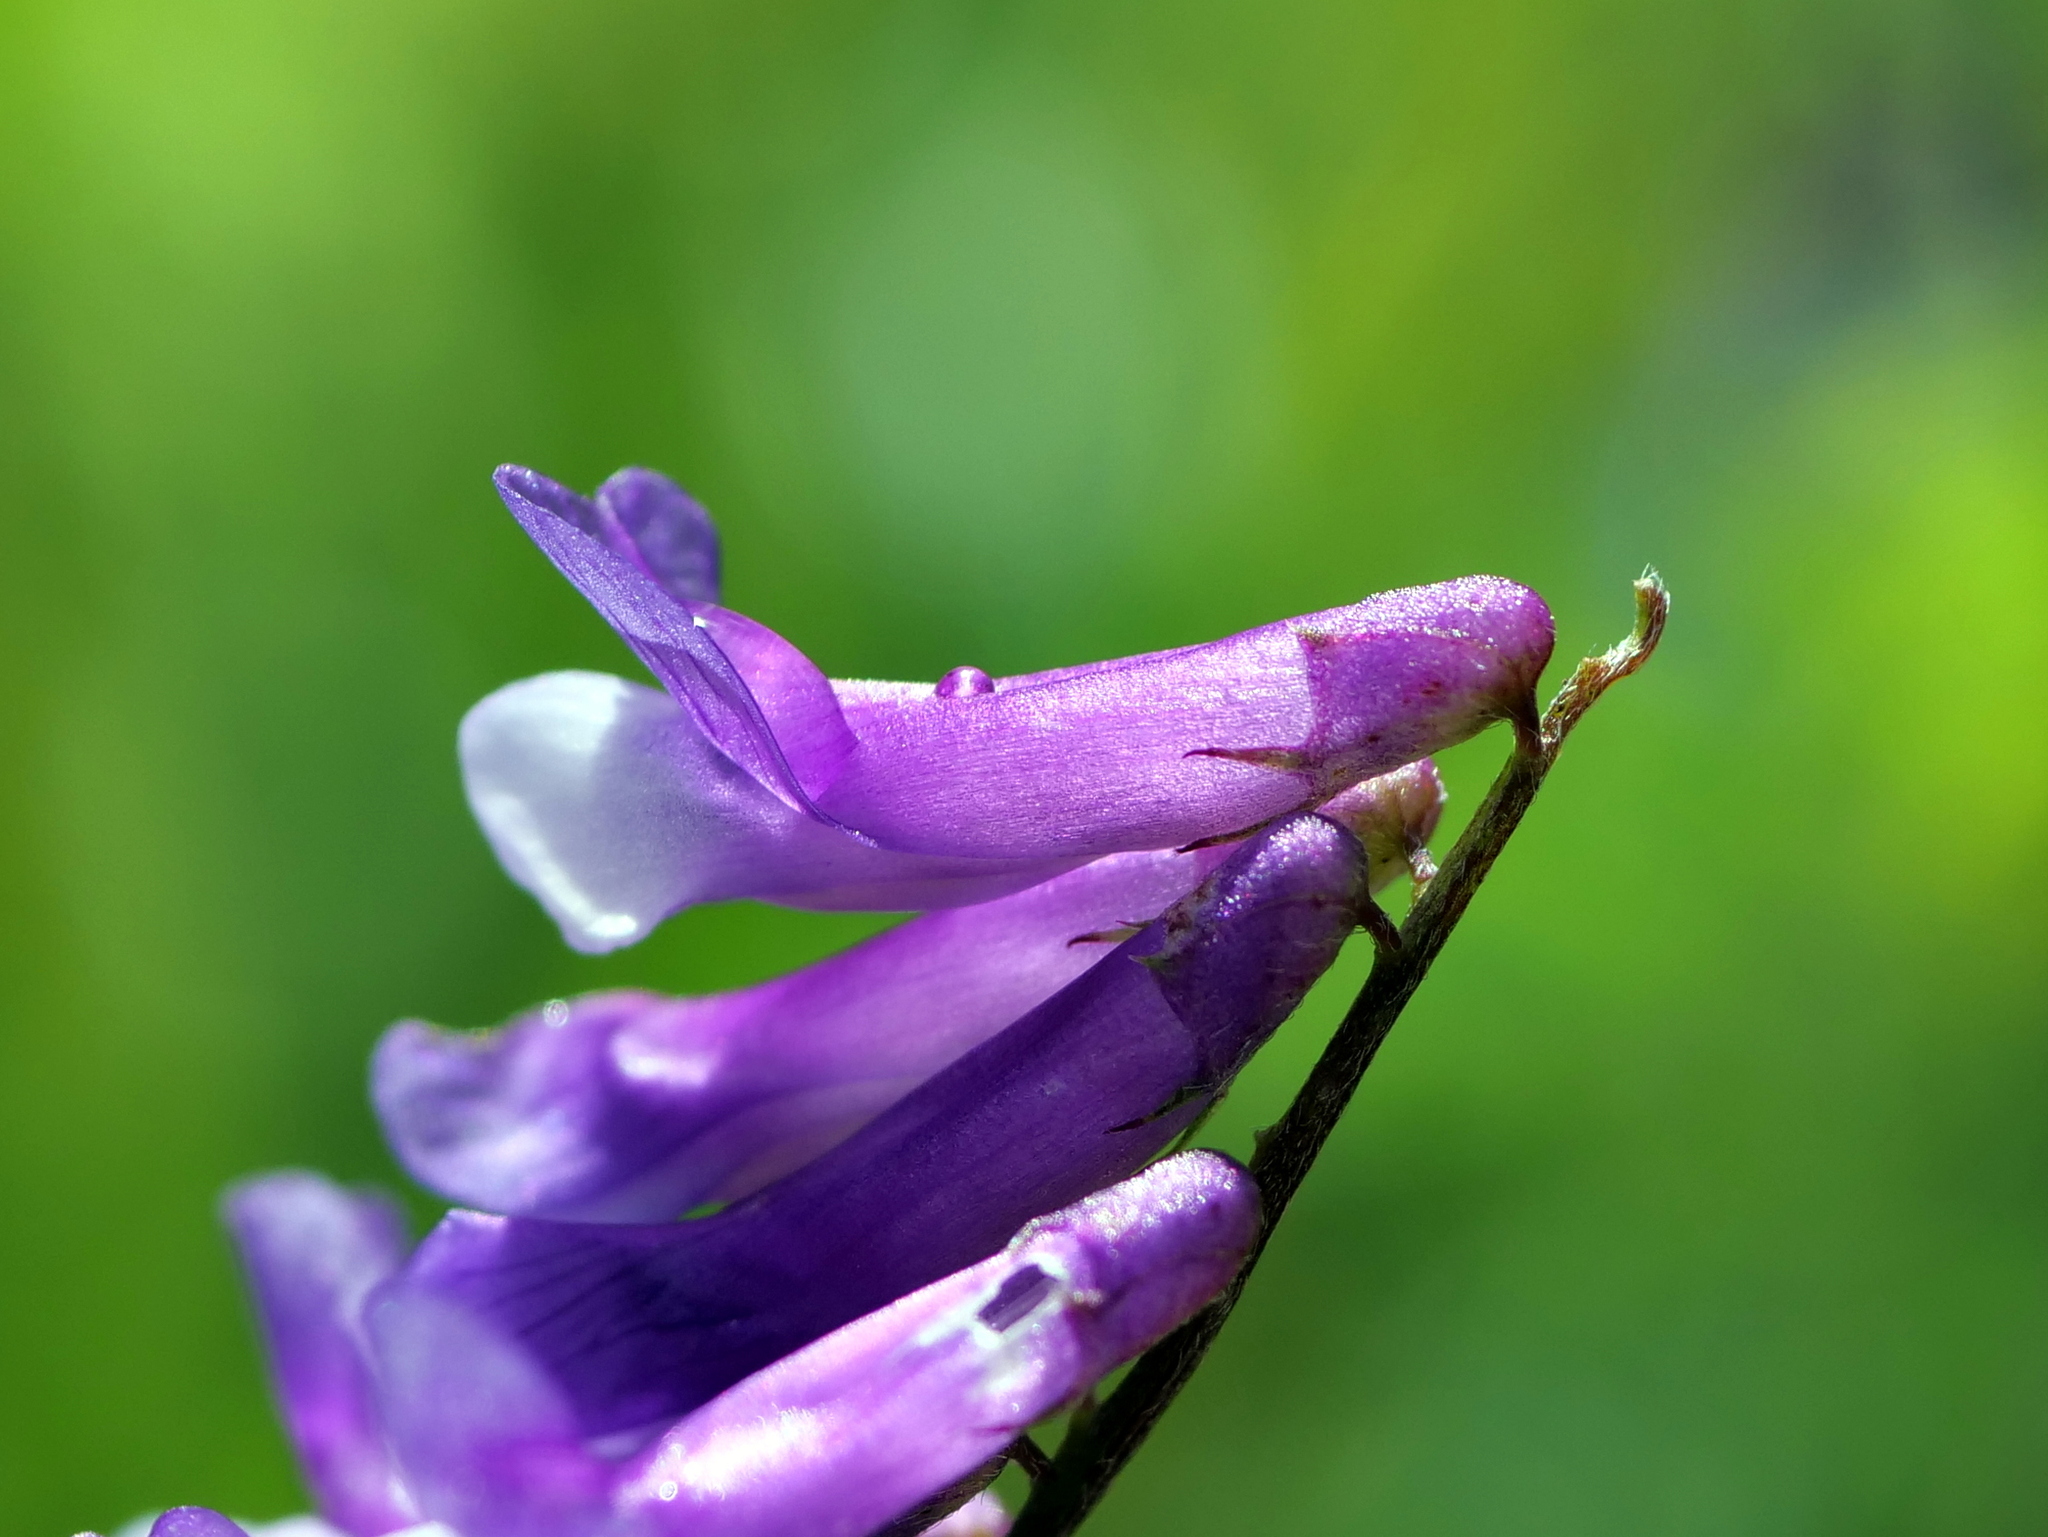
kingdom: Plantae
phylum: Tracheophyta
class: Magnoliopsida
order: Fabales
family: Fabaceae
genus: Vicia
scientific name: Vicia villosa
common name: Fodder vetch
